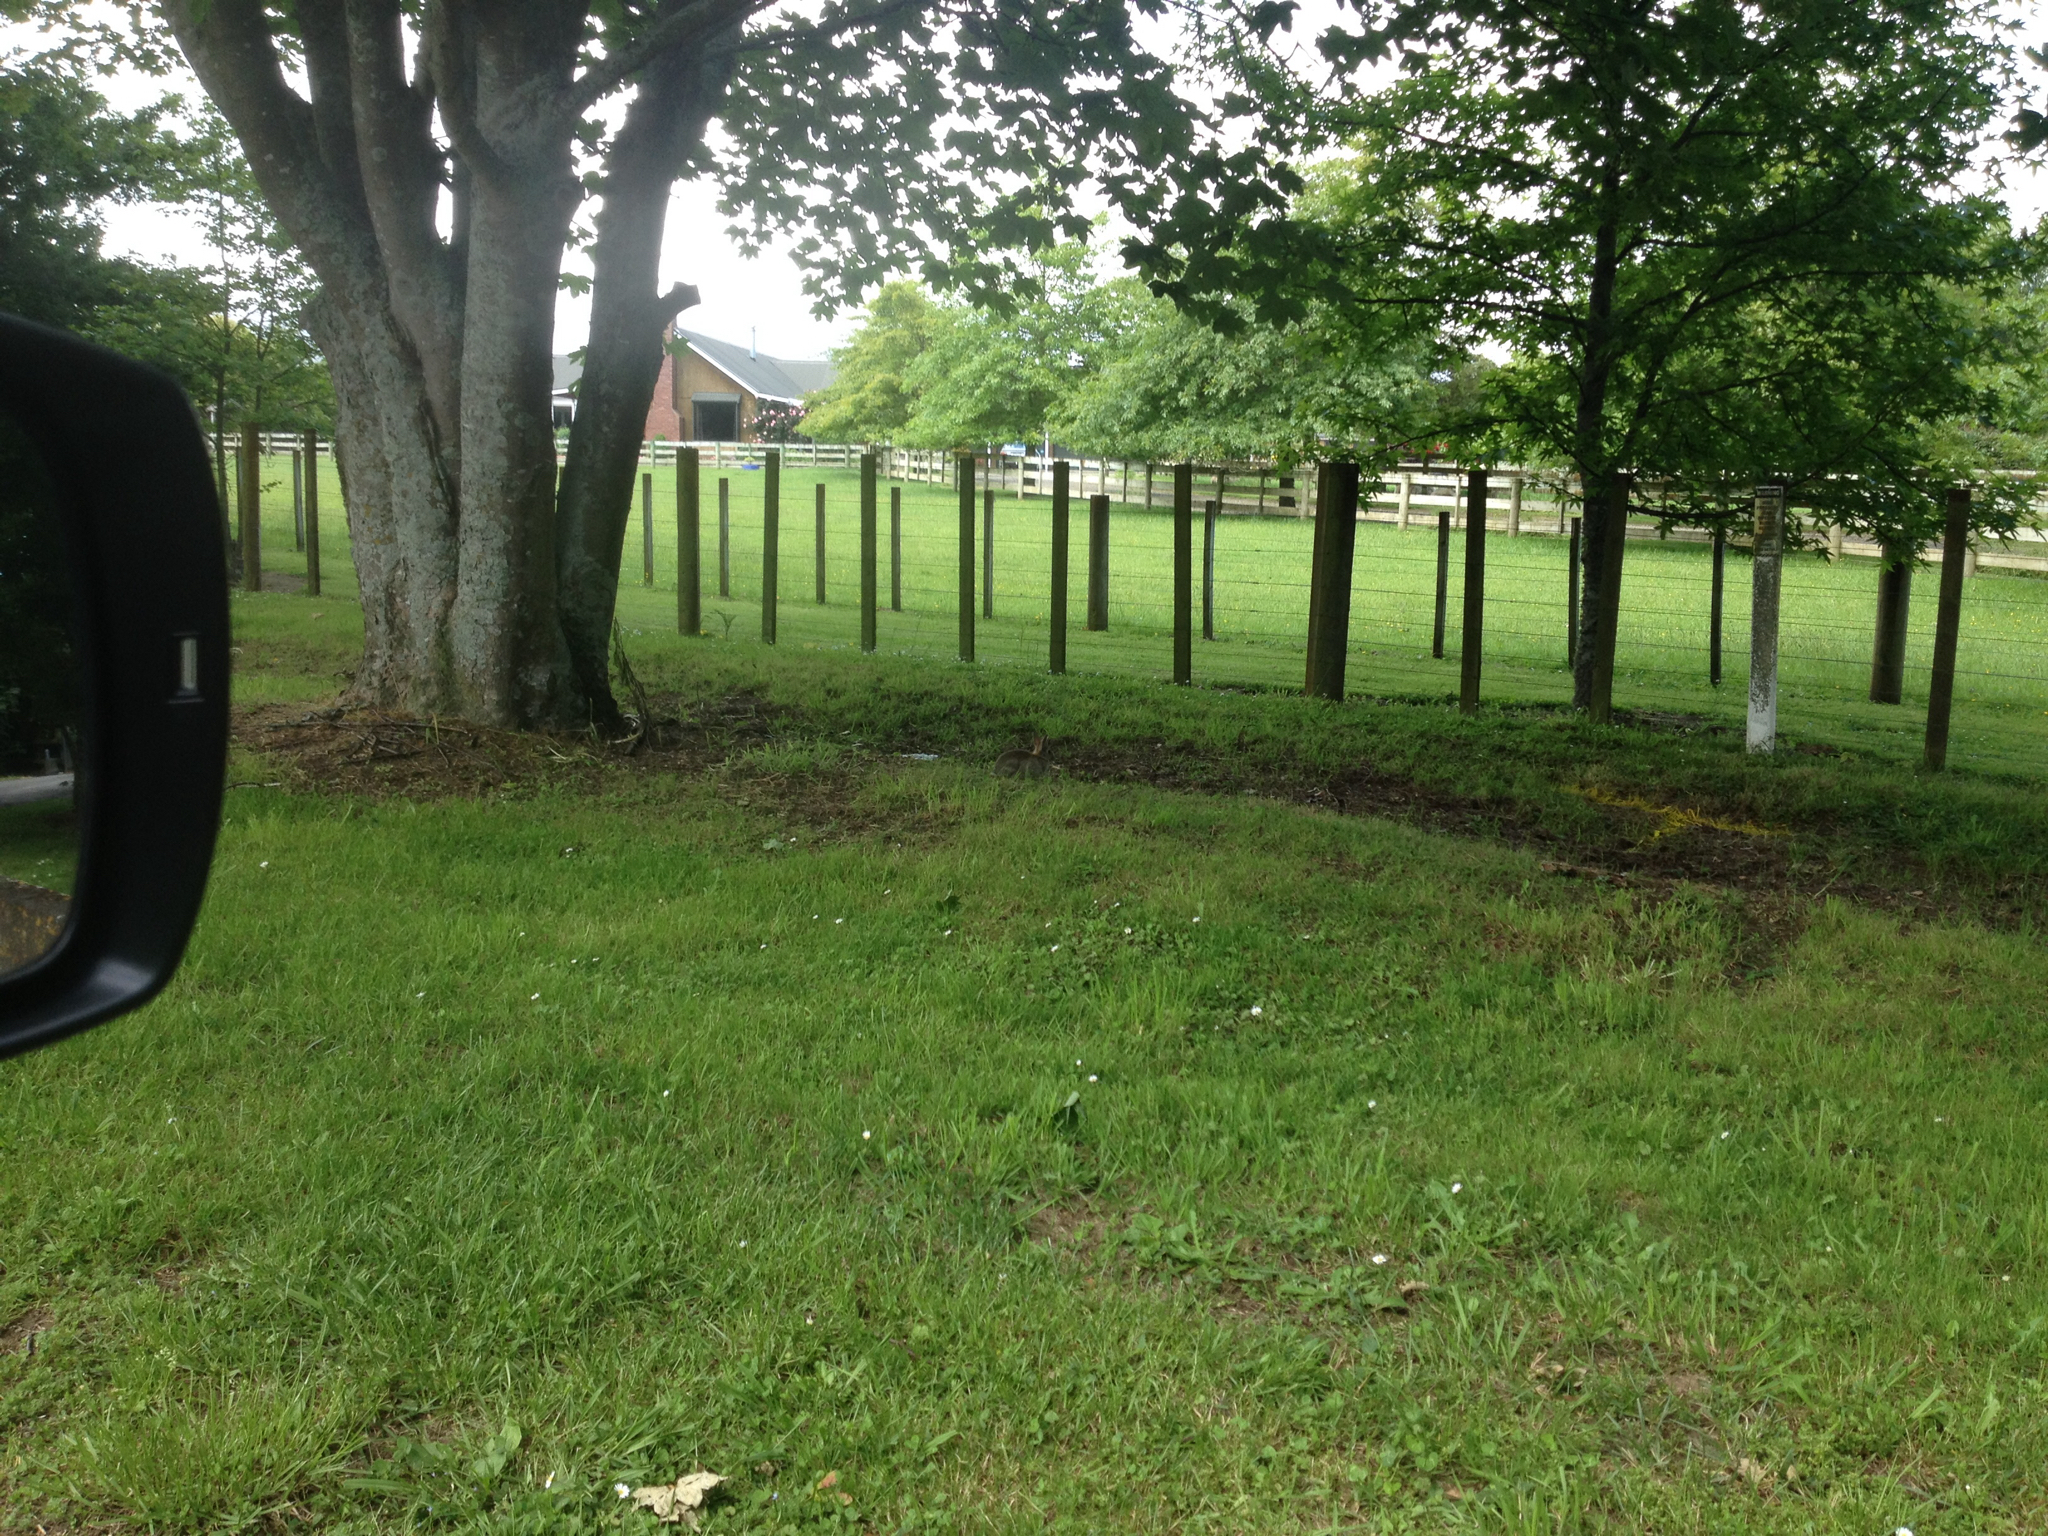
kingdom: Animalia
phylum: Chordata
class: Mammalia
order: Lagomorpha
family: Leporidae
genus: Oryctolagus
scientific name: Oryctolagus cuniculus
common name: European rabbit
